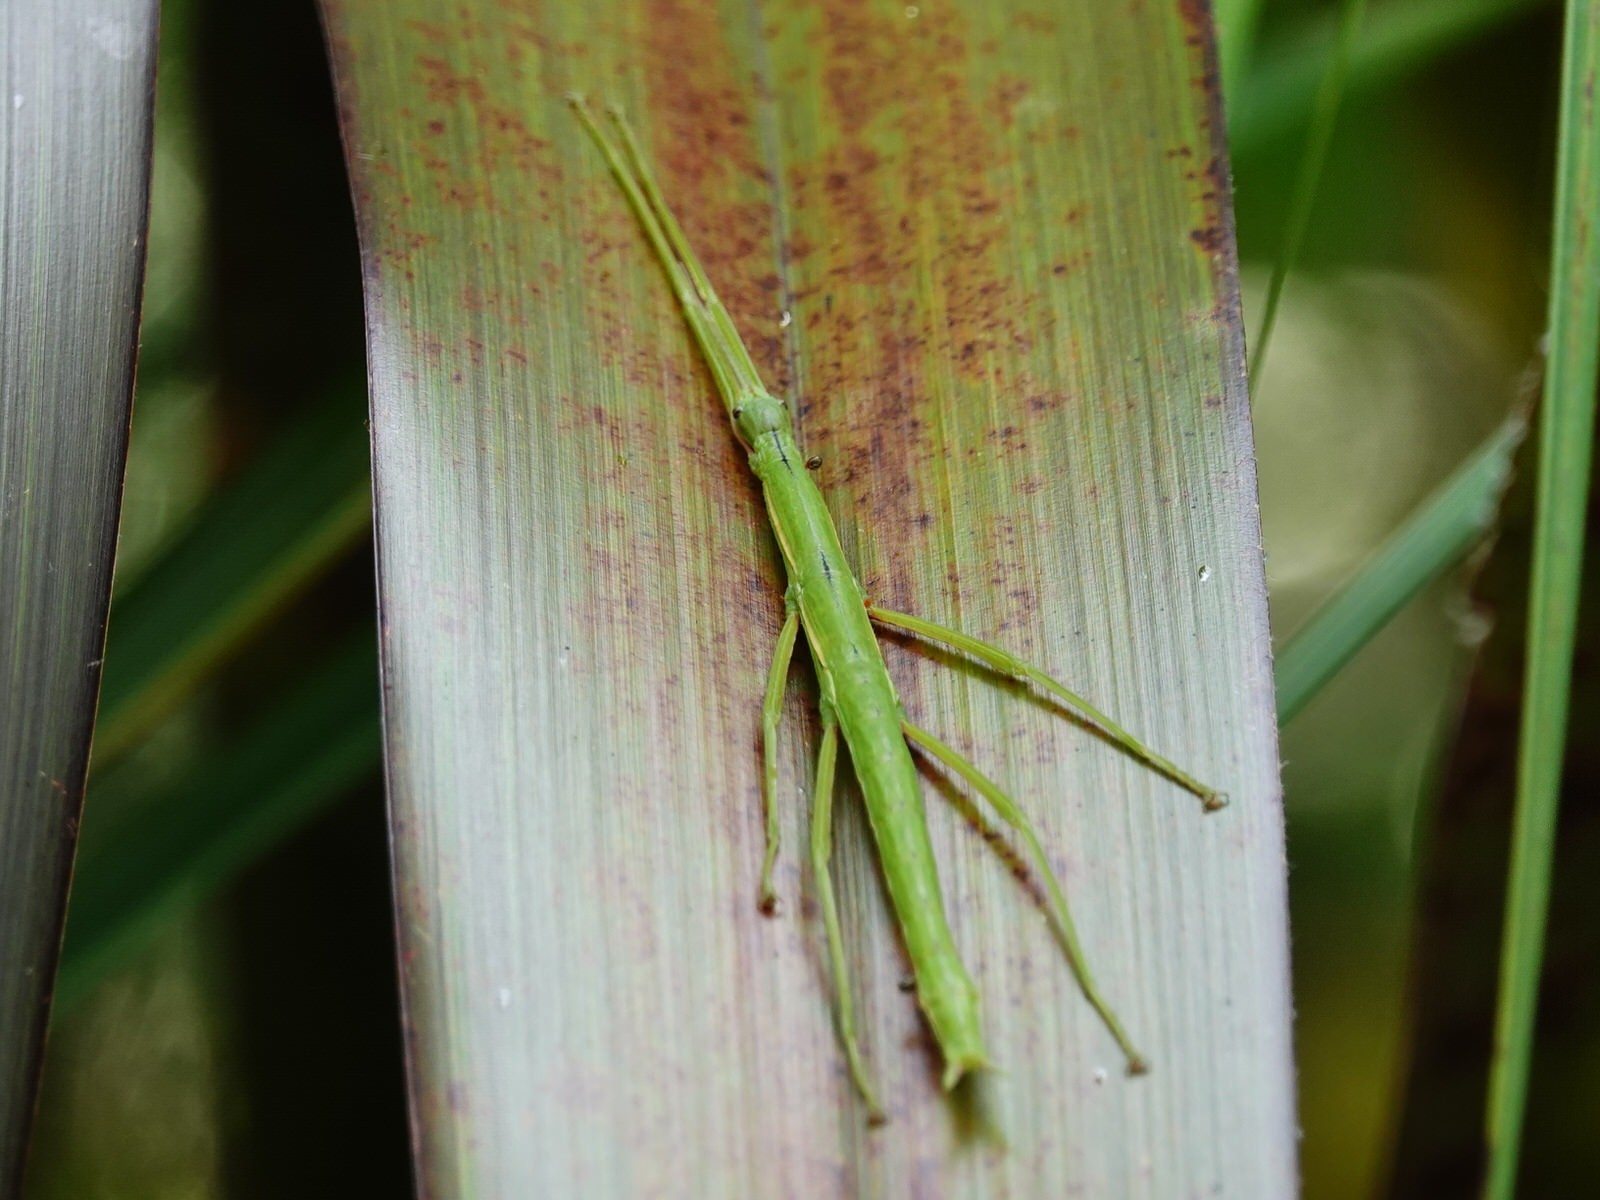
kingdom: Animalia
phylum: Arthropoda
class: Insecta
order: Phasmida
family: Phasmatidae
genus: Clitarchus
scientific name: Clitarchus hookeri
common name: Smooth stick insect
